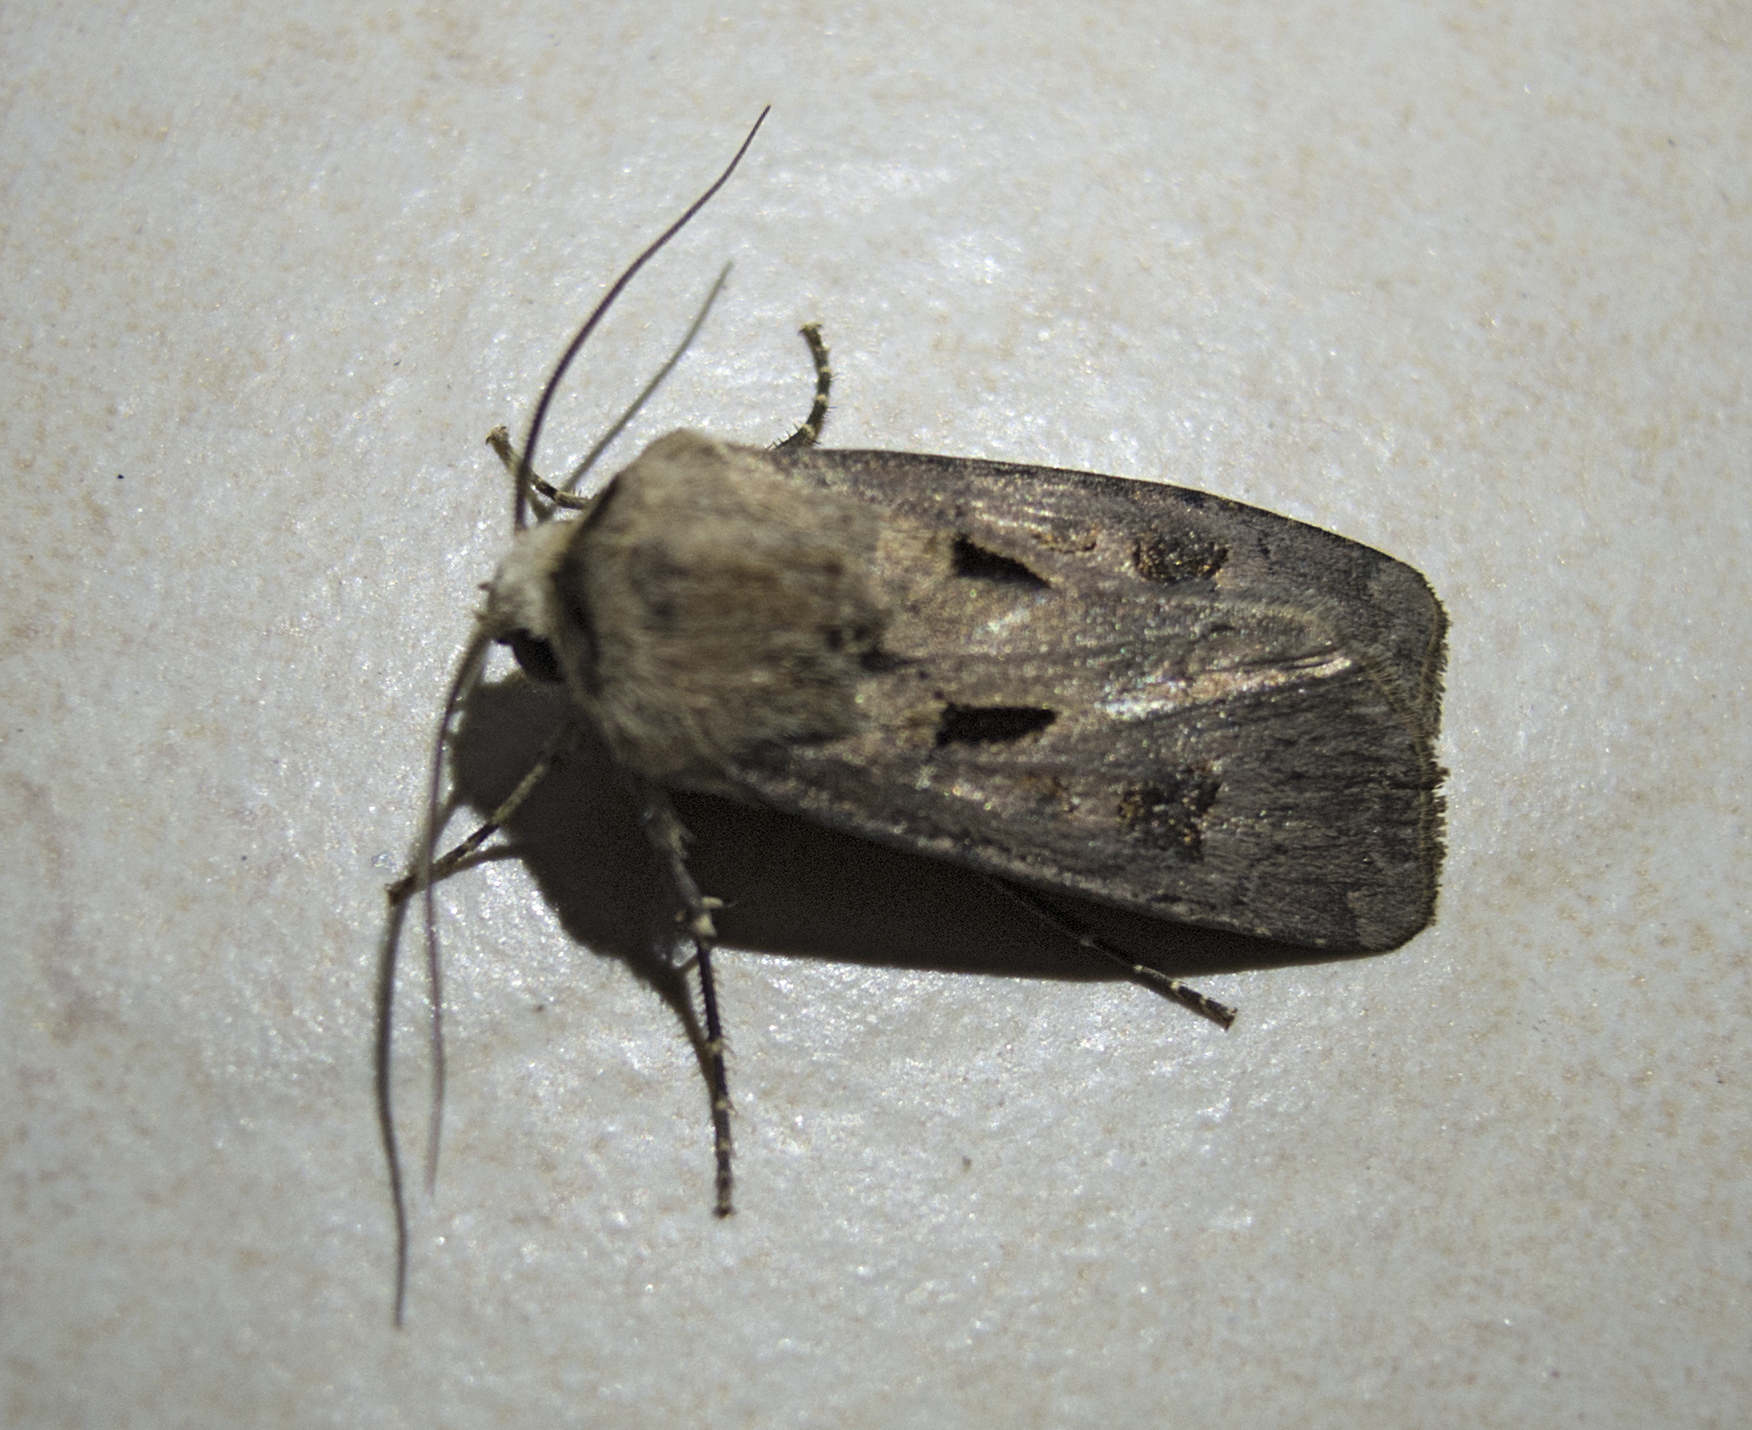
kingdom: Animalia
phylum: Arthropoda
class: Insecta
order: Lepidoptera
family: Noctuidae
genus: Agrotis
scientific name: Agrotis exclamationis
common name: Heart and dart
